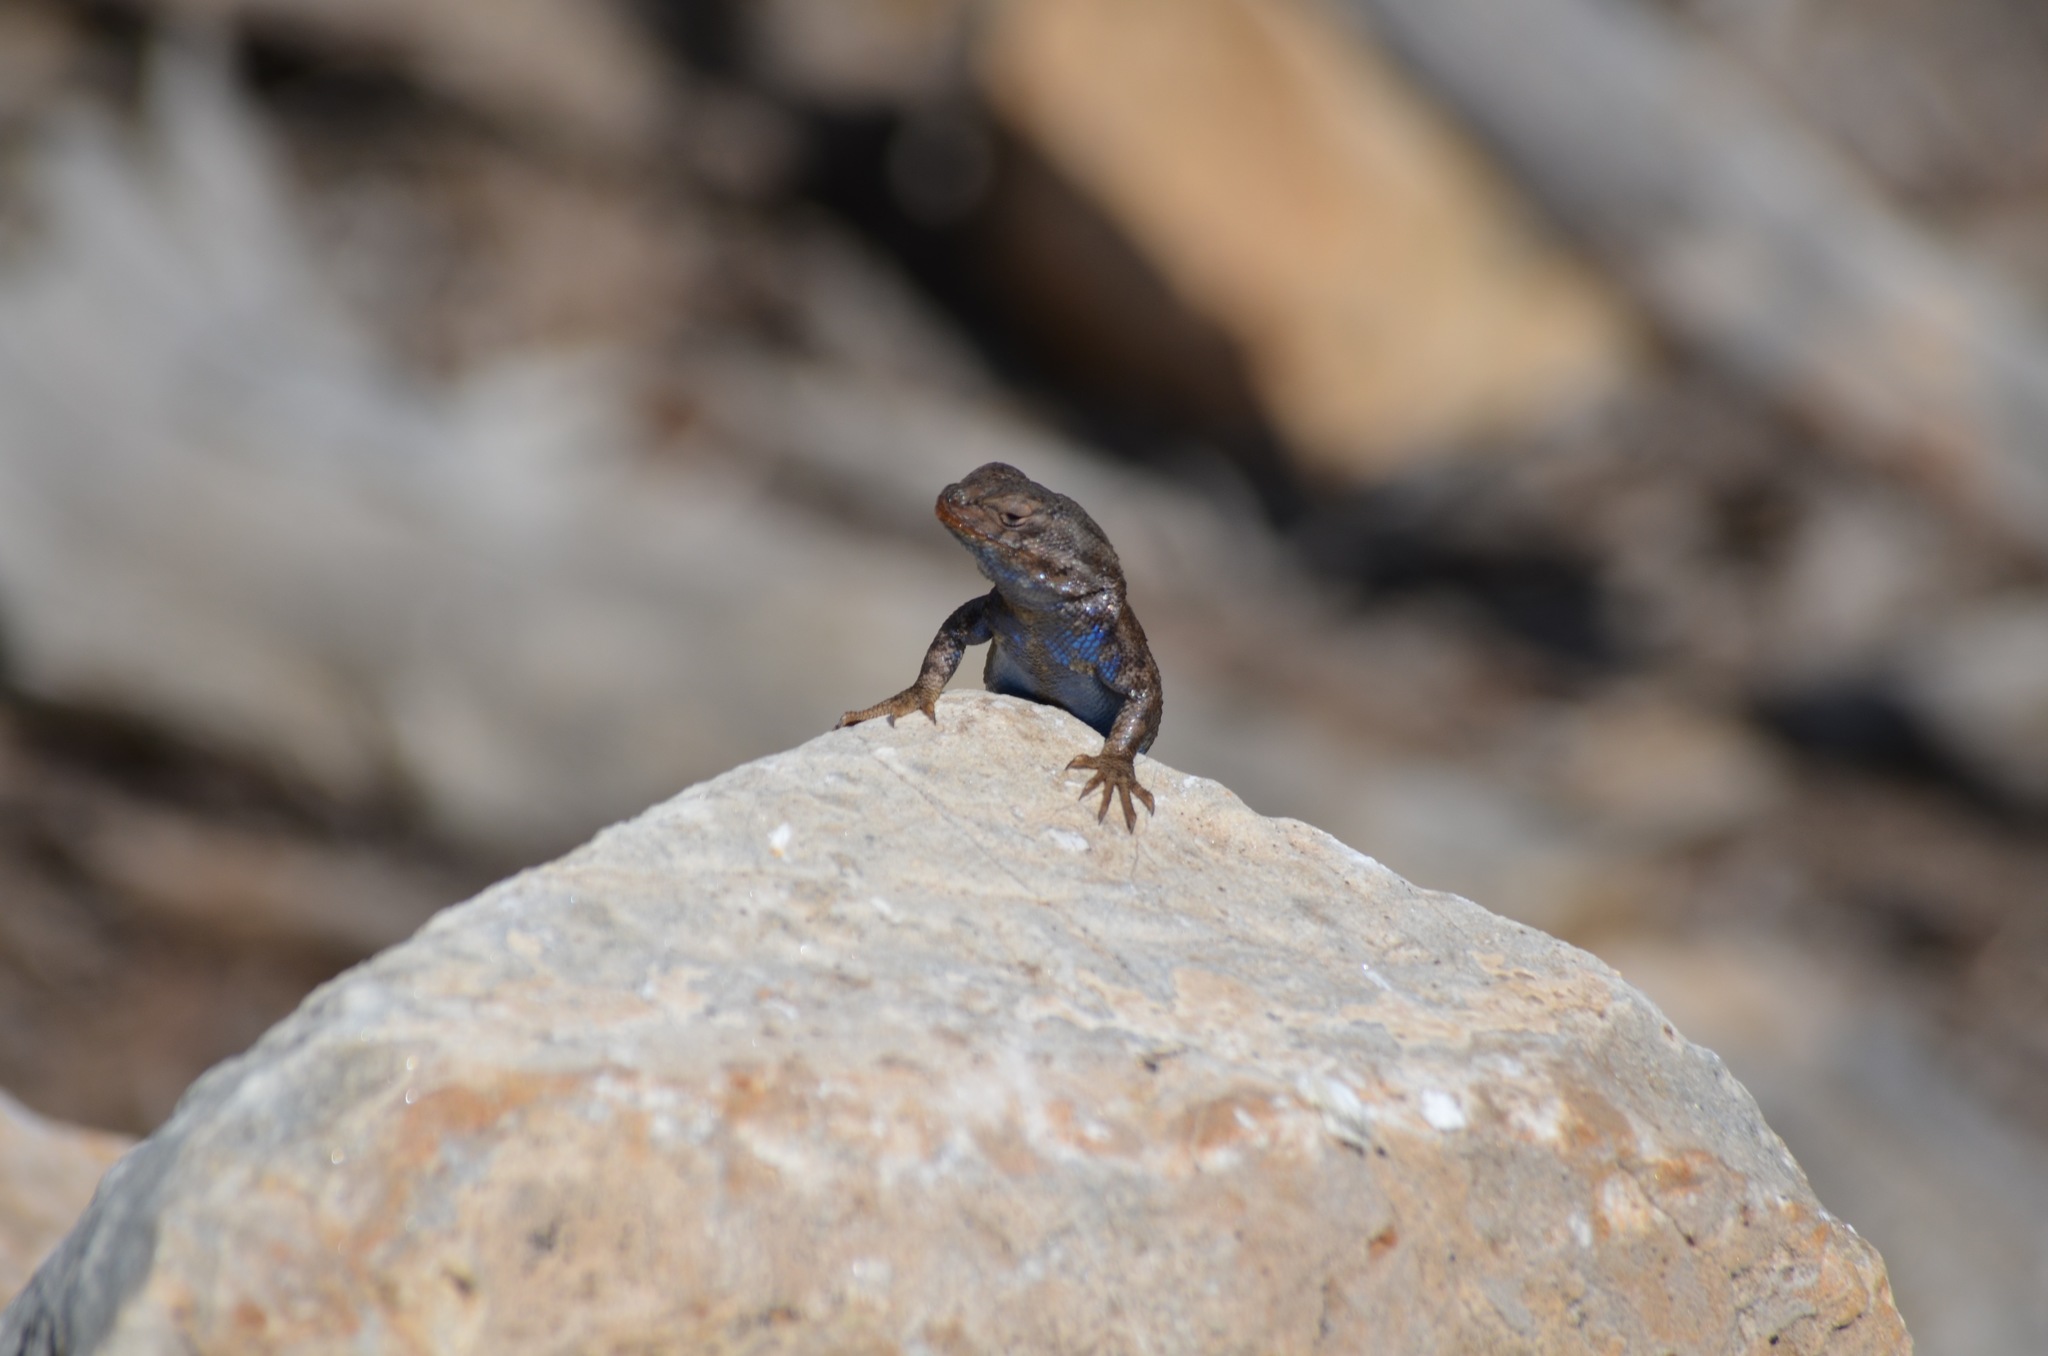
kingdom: Animalia
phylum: Chordata
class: Squamata
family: Phrynosomatidae
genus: Sceloporus
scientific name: Sceloporus occidentalis
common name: Western fence lizard
